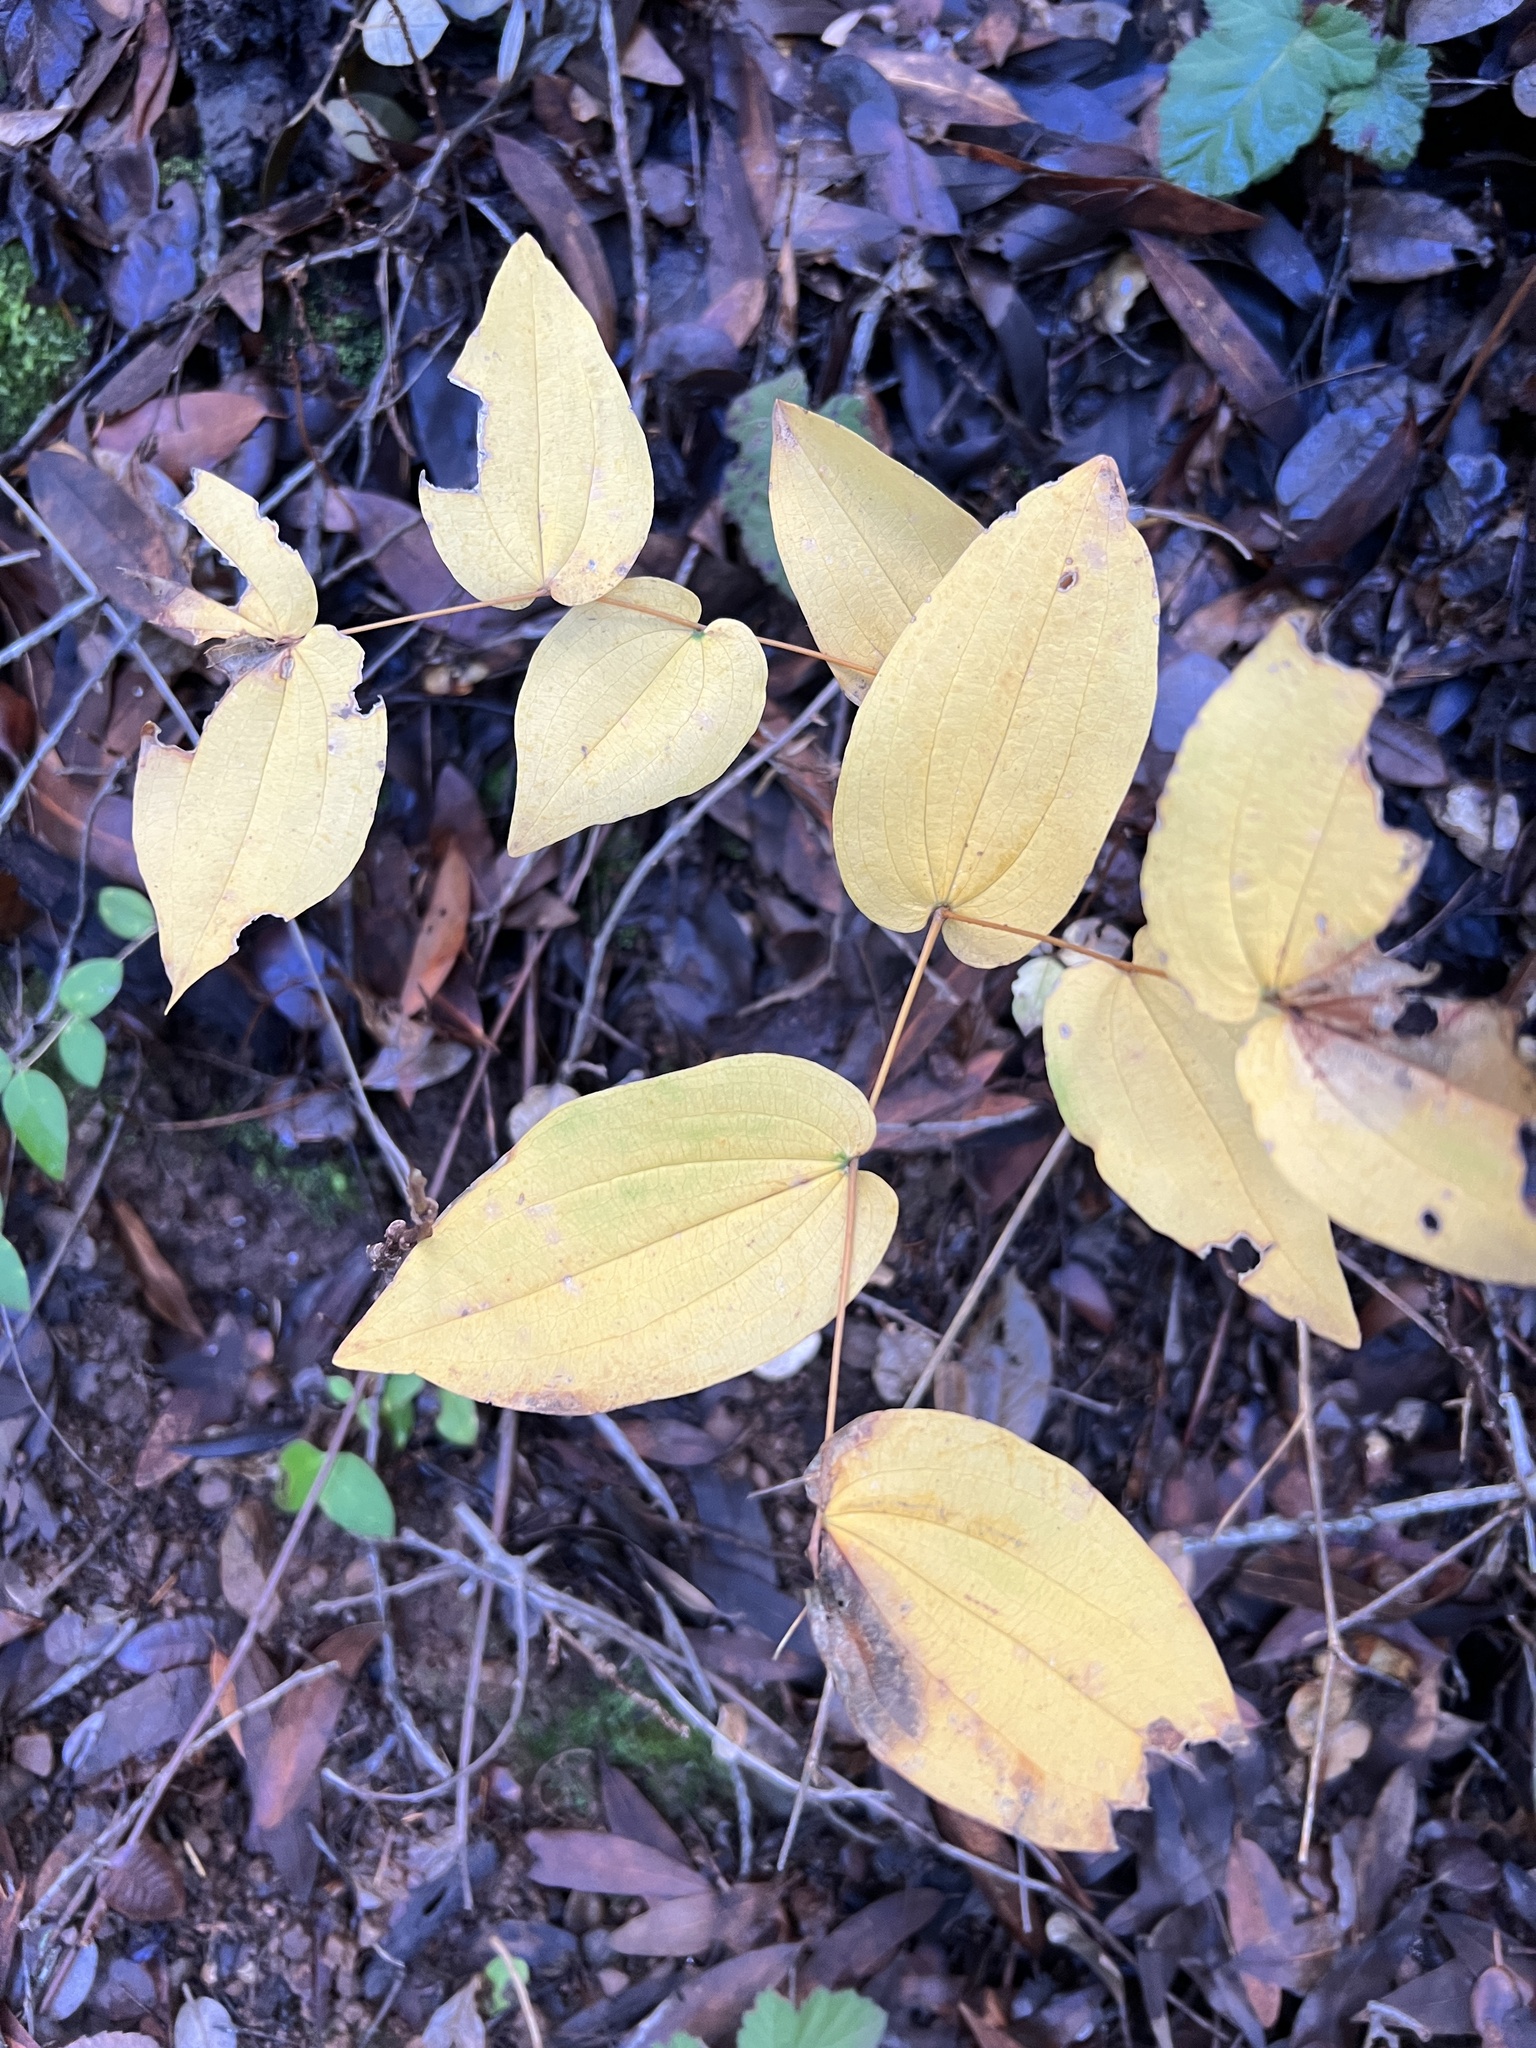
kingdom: Plantae
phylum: Tracheophyta
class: Liliopsida
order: Liliales
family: Liliaceae
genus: Prosartes
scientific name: Prosartes hookeri
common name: Fairy-bells
